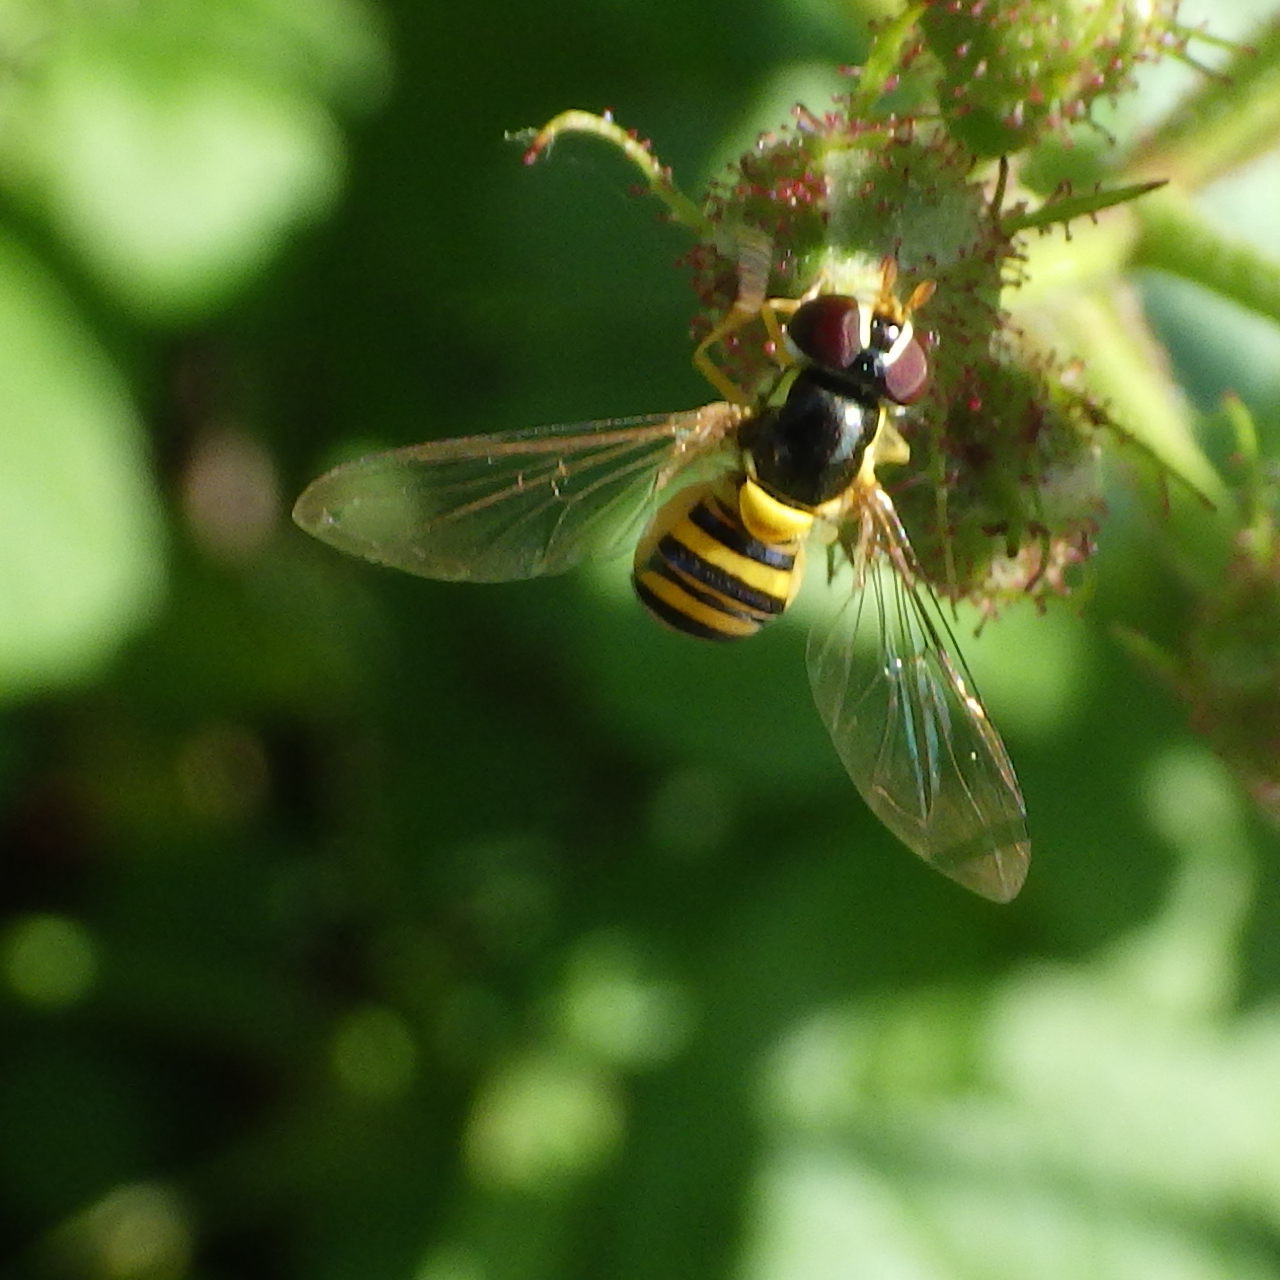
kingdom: Animalia
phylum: Arthropoda
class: Insecta
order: Diptera
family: Syrphidae
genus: Allograpta
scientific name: Allograpta obliqua
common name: Common oblique syrphid
